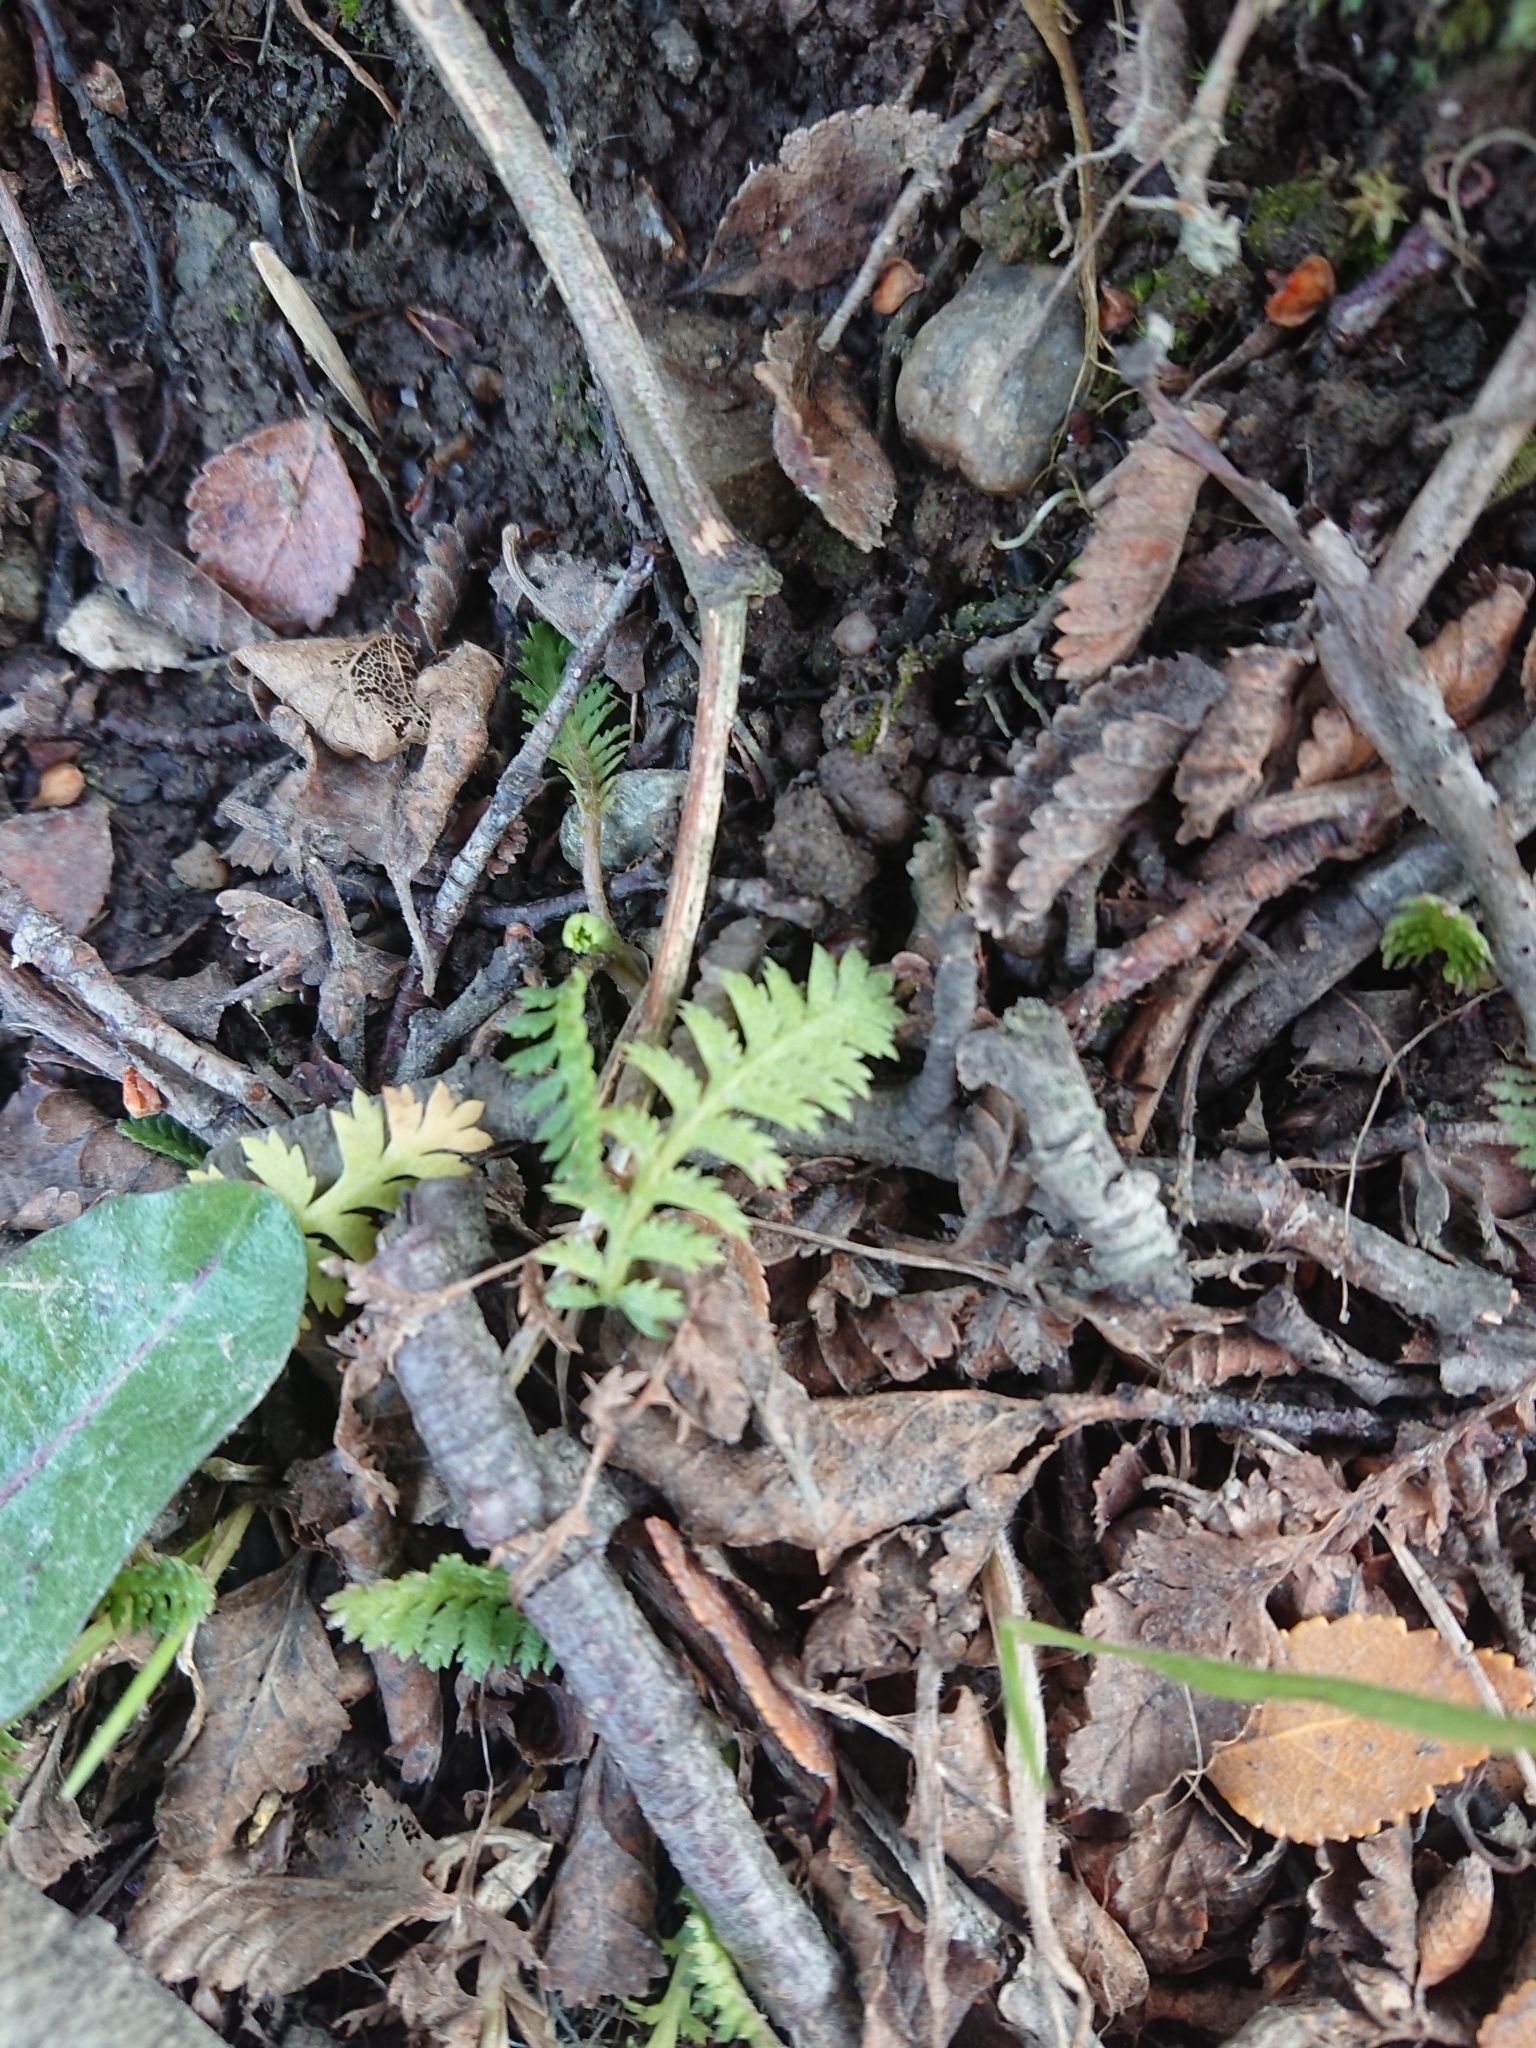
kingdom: Plantae
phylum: Tracheophyta
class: Magnoliopsida
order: Asterales
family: Asteraceae
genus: Leptinella
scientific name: Leptinella scariosa
